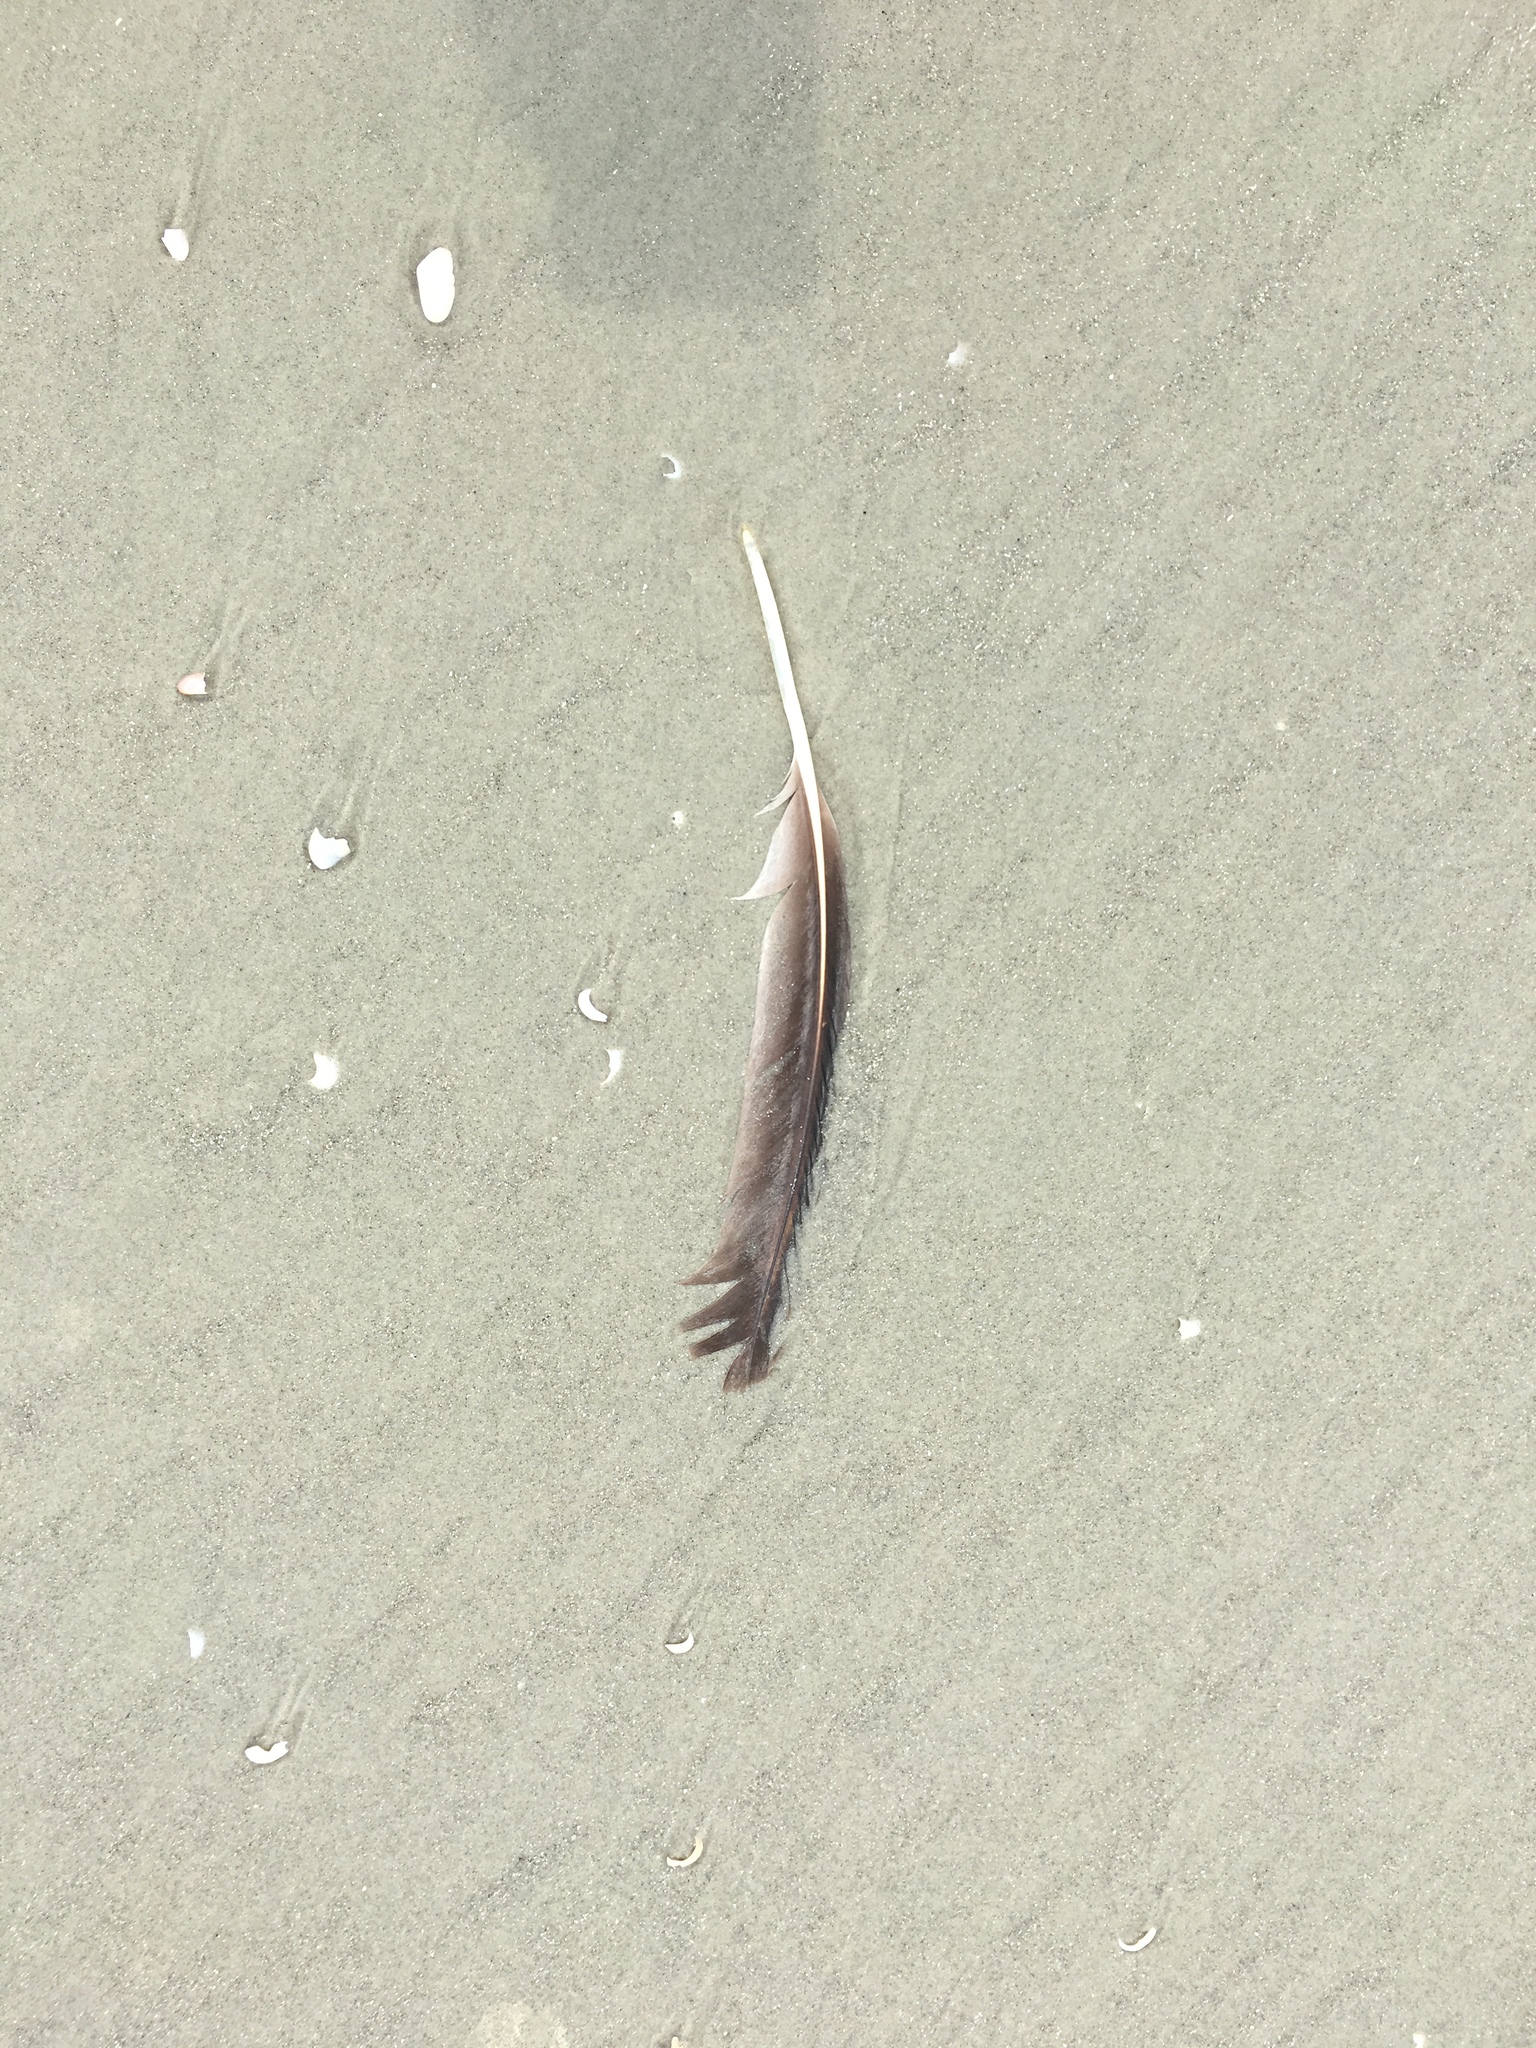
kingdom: Animalia
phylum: Chordata
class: Aves
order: Pelecaniformes
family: Pelecanidae
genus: Pelecanus
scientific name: Pelecanus occidentalis
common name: Brown pelican
